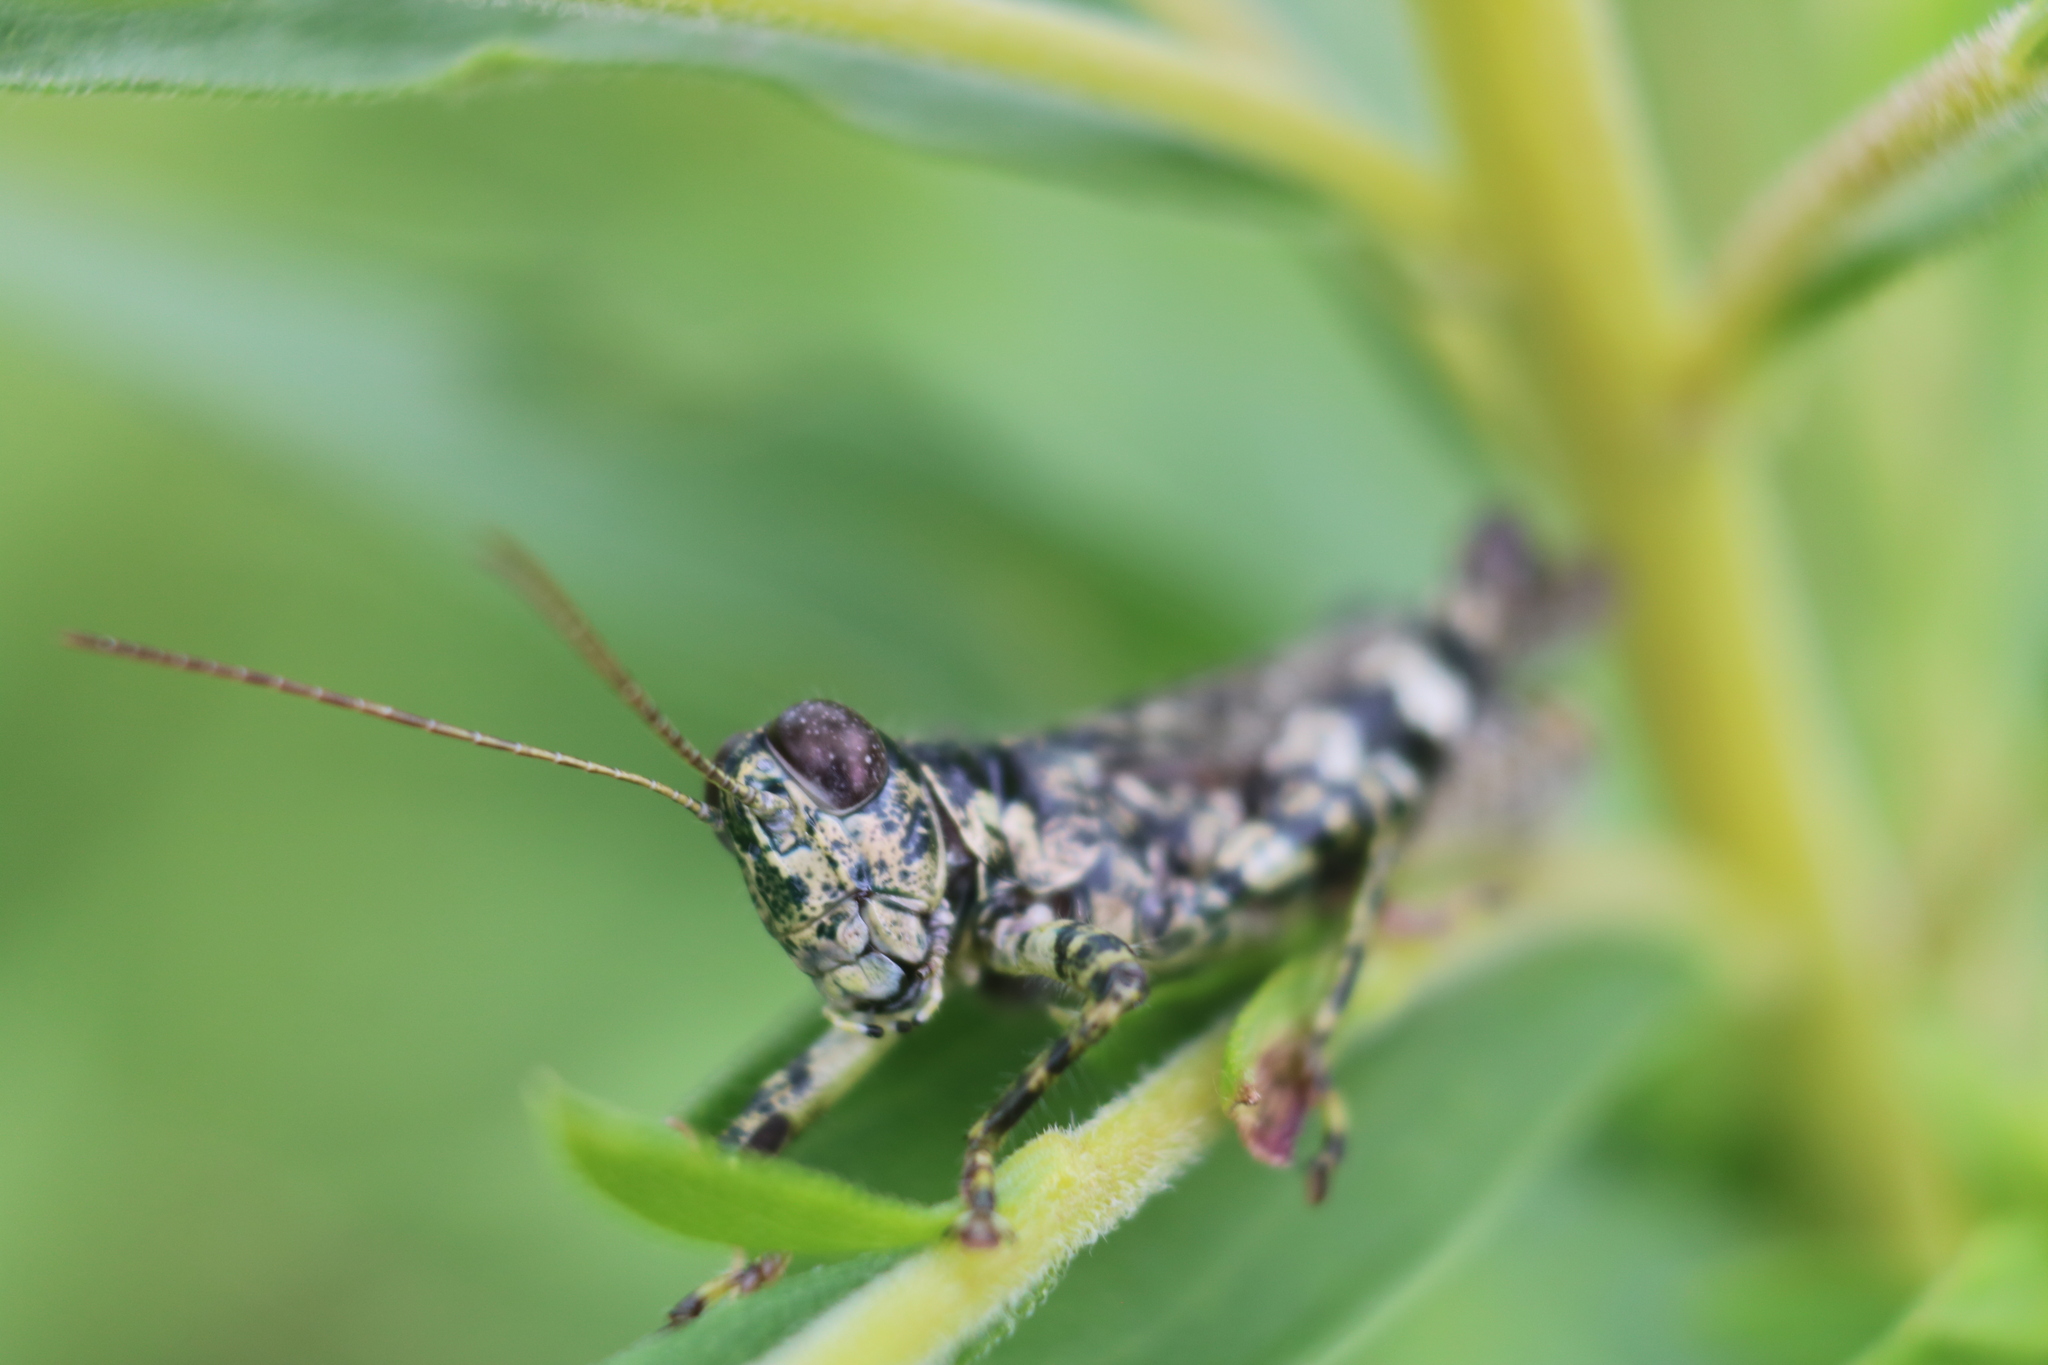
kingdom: Animalia
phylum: Arthropoda
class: Insecta
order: Orthoptera
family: Acrididae
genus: Melanoplus
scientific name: Melanoplus punctulatus
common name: Pine-tree spur-throat grasshopper
